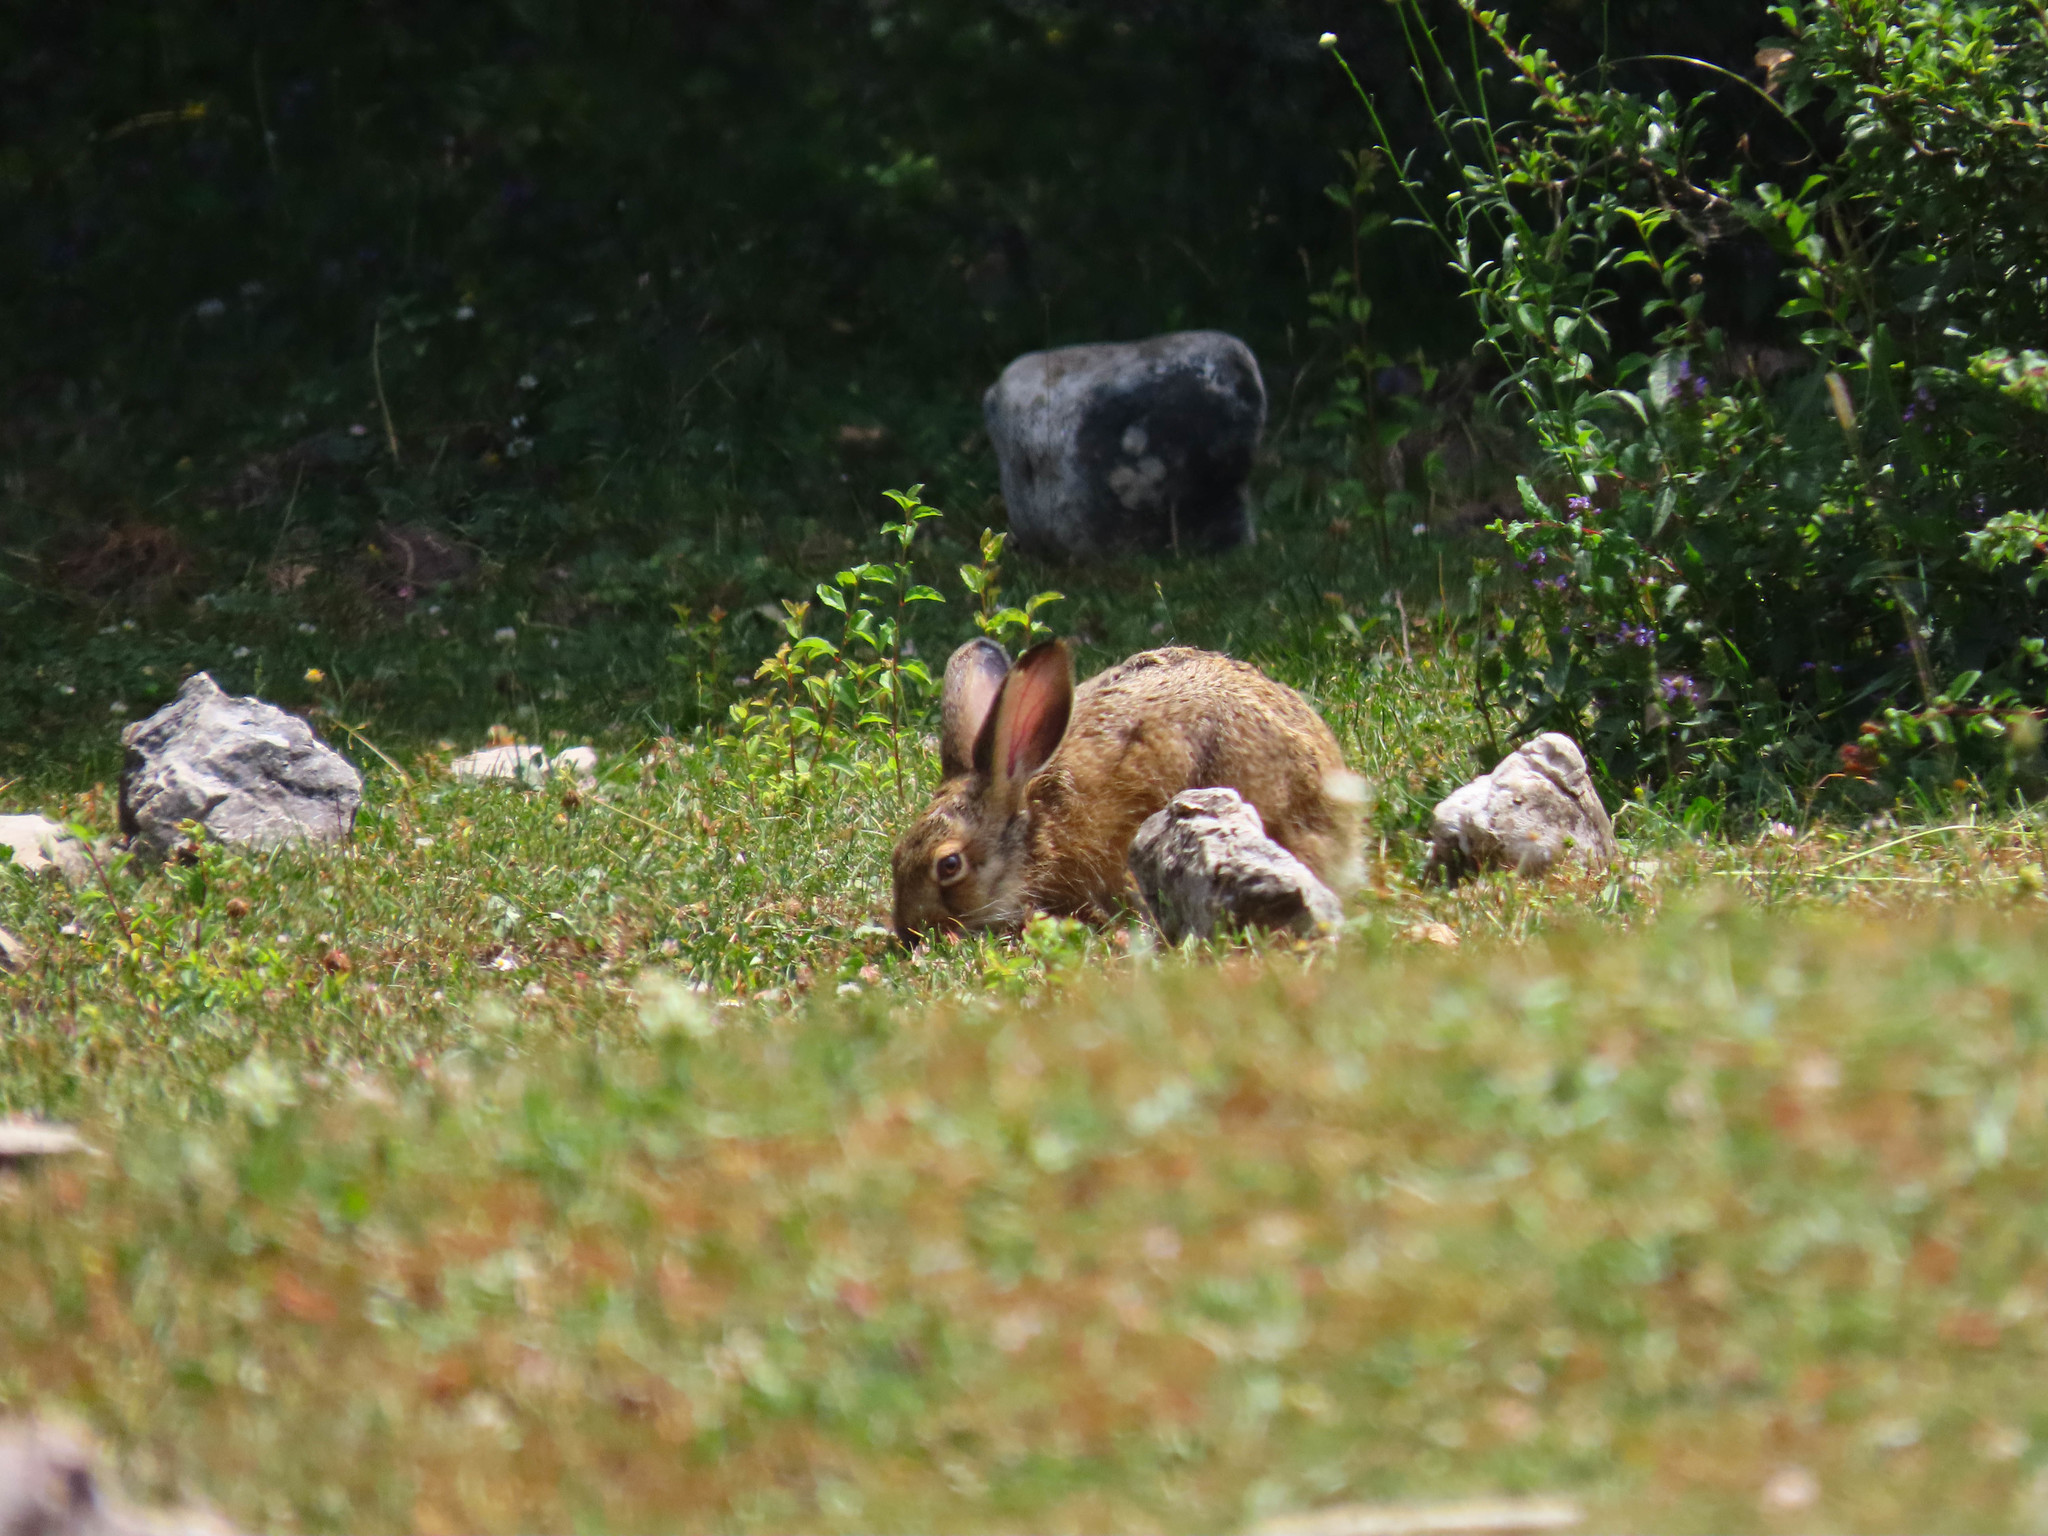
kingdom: Animalia
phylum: Chordata
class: Mammalia
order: Lagomorpha
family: Leporidae
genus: Lepus
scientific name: Lepus europaeus
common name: European hare
